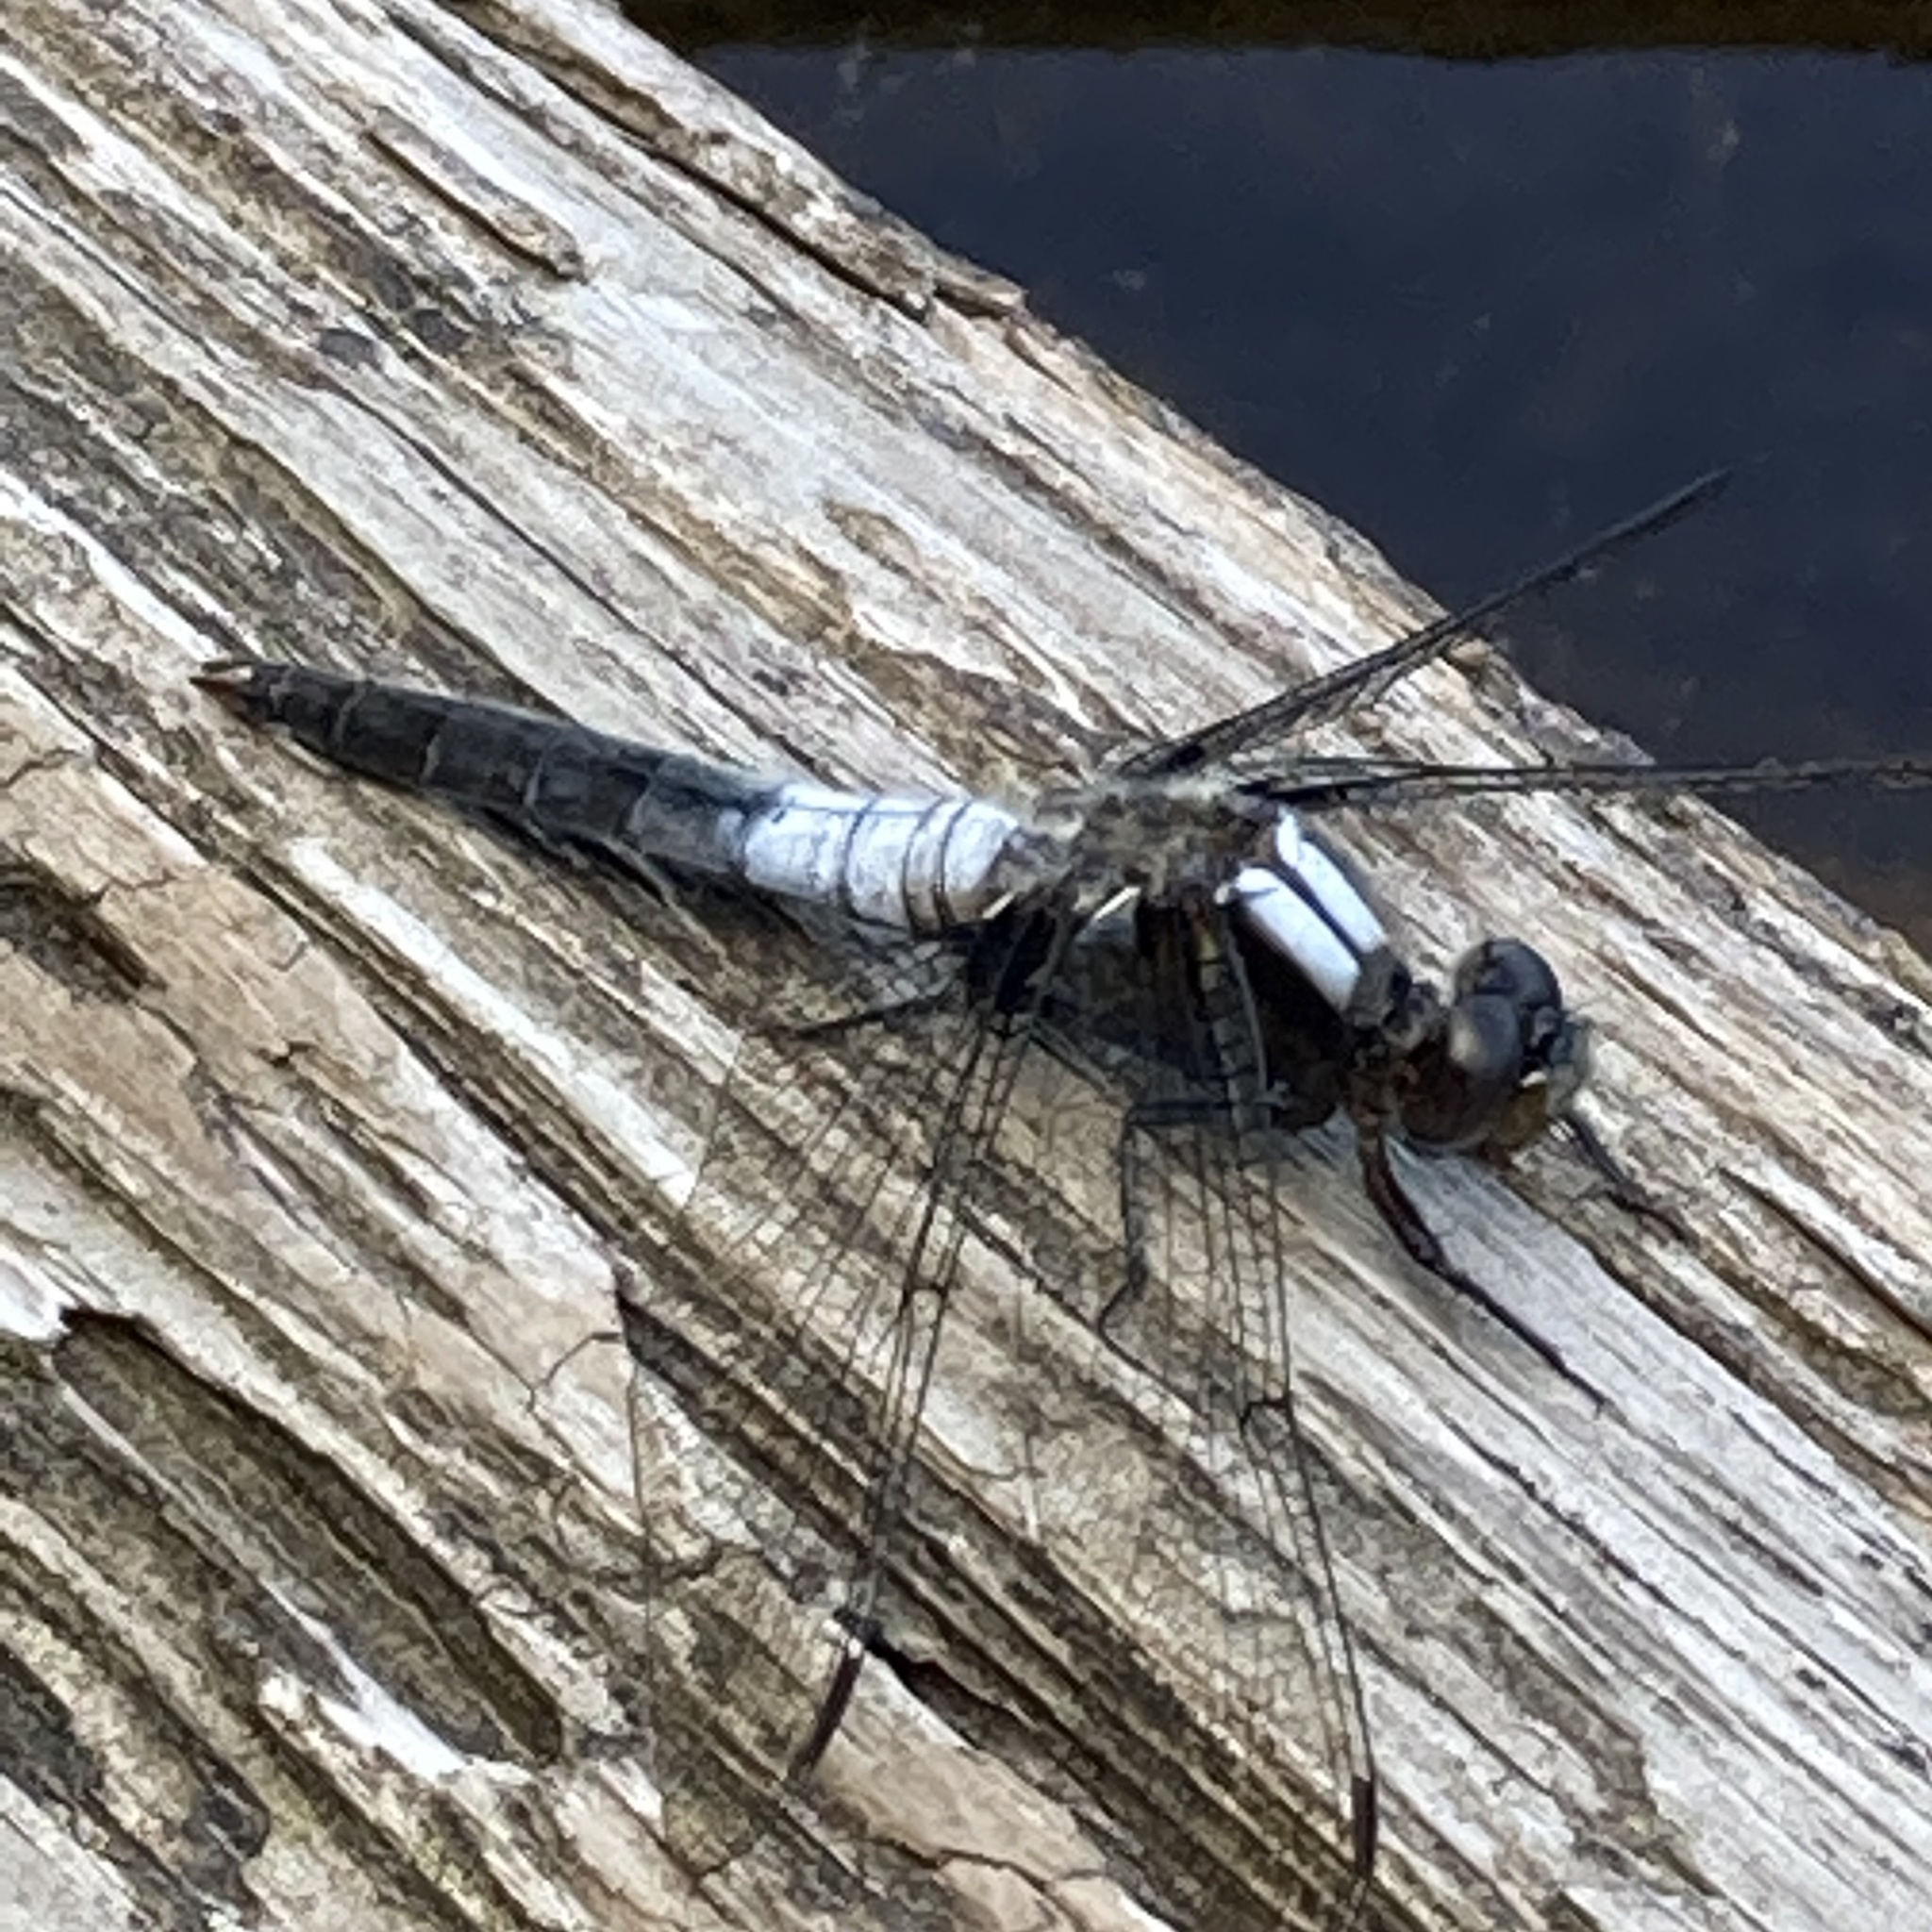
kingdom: Animalia
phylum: Arthropoda
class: Insecta
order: Odonata
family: Libellulidae
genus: Ladona
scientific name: Ladona julia
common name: Chalk-fronted corporal
